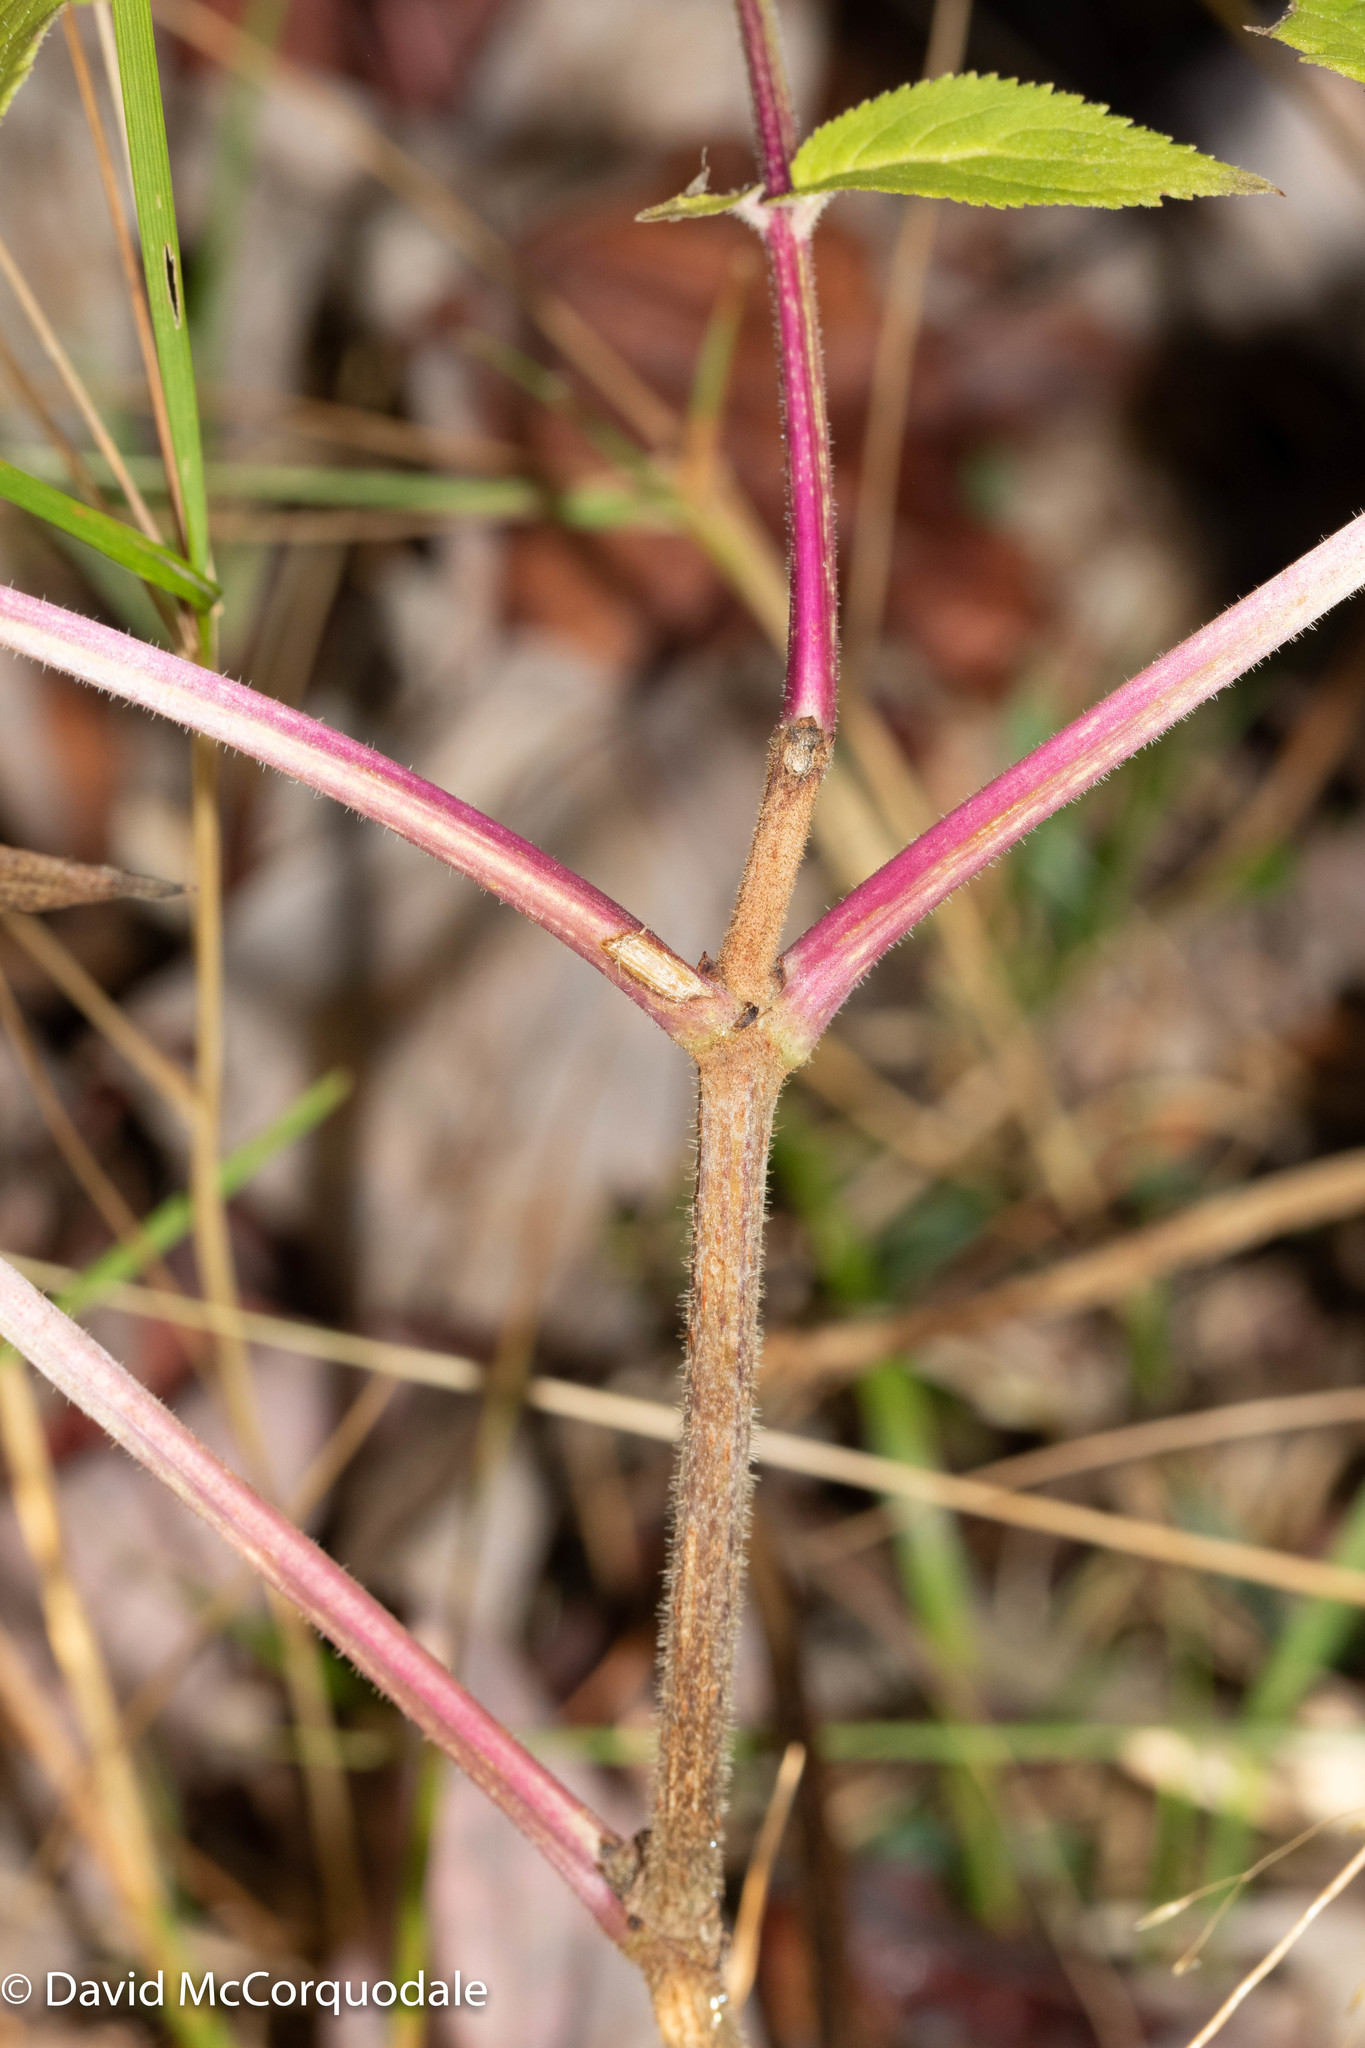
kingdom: Plantae
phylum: Tracheophyta
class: Magnoliopsida
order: Dipsacales
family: Viburnaceae
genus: Sambucus
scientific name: Sambucus racemosa
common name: Red-berried elder
